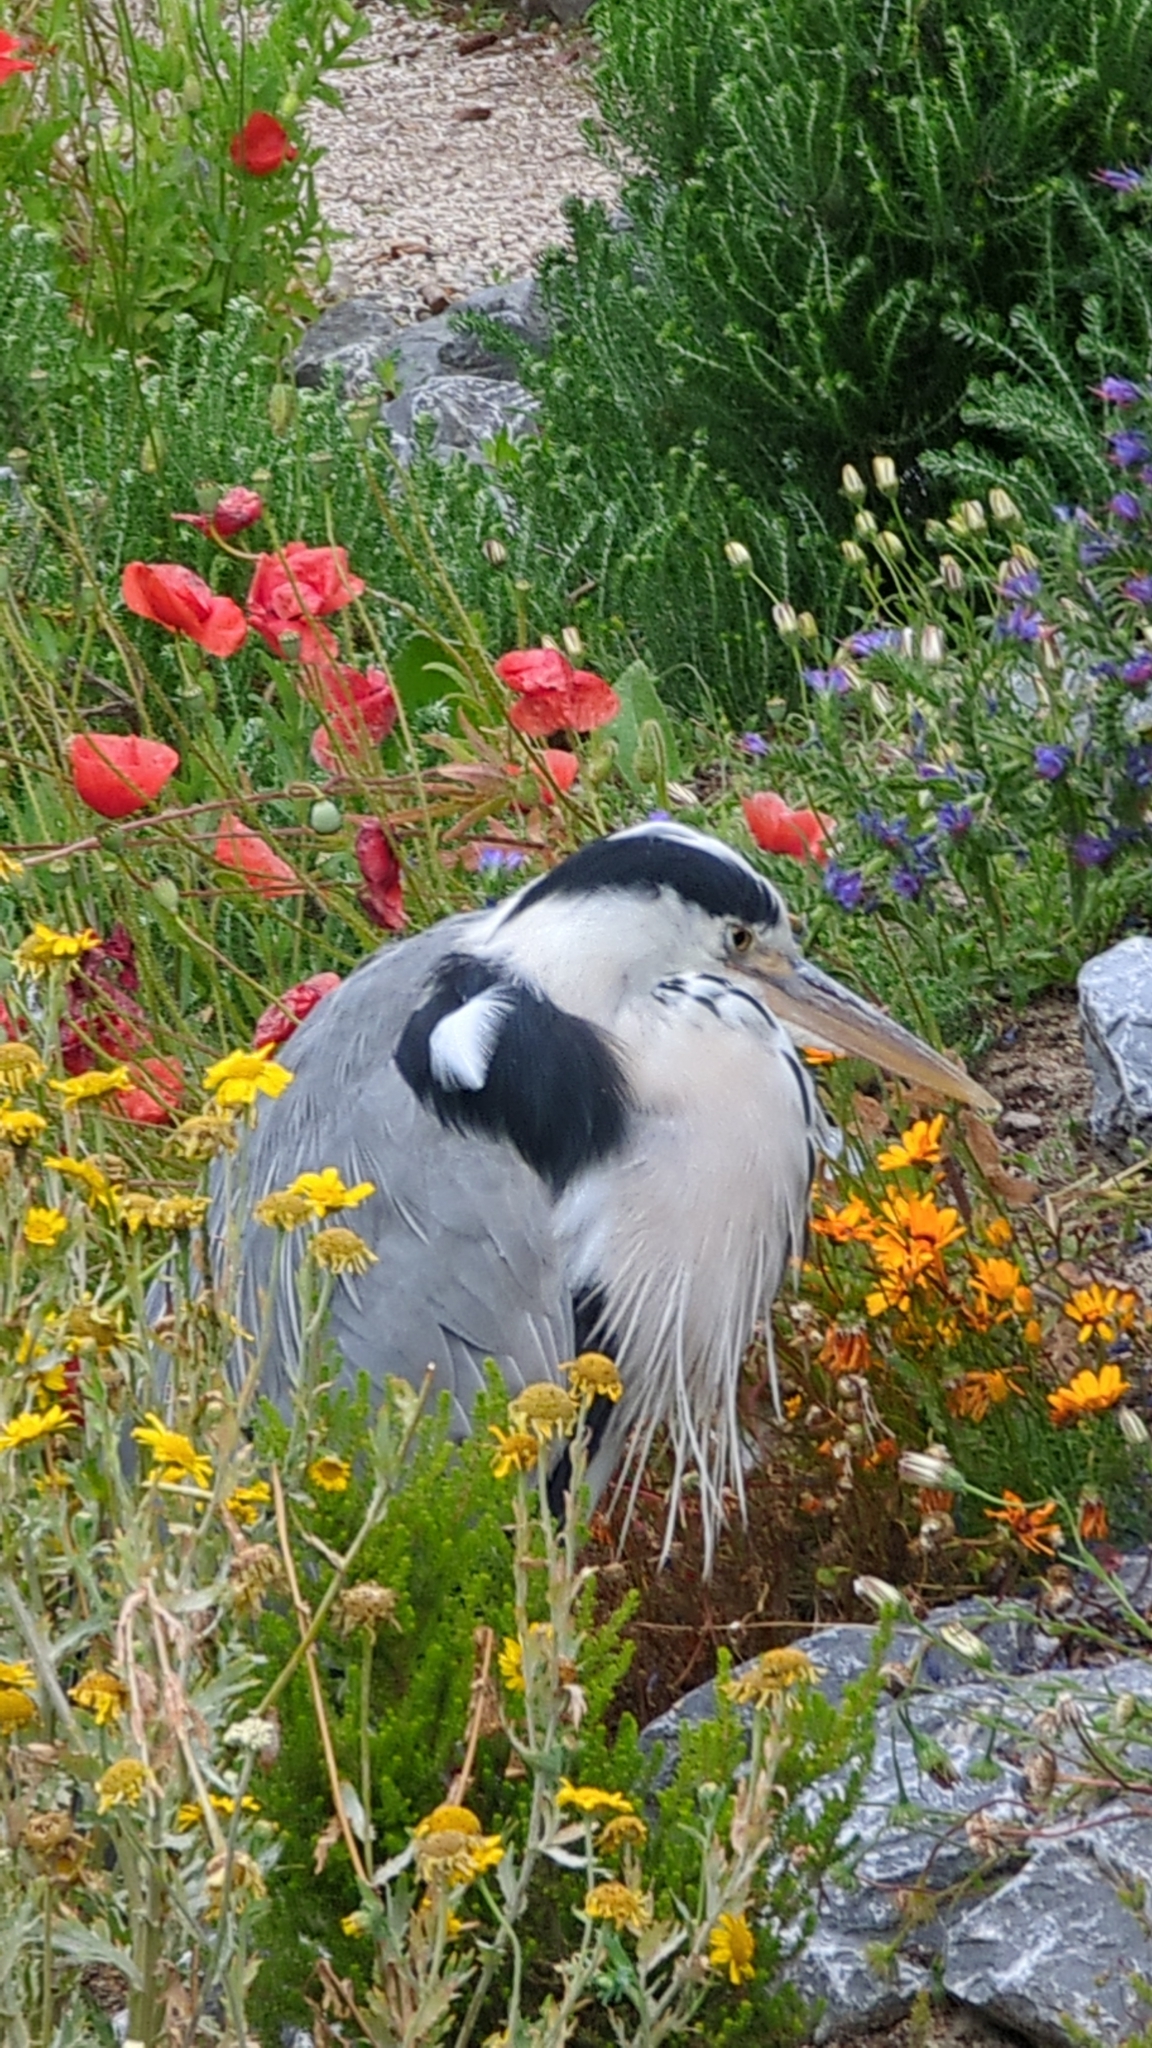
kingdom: Animalia
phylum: Chordata
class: Aves
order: Pelecaniformes
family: Ardeidae
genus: Ardea
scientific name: Ardea cinerea
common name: Grey heron
